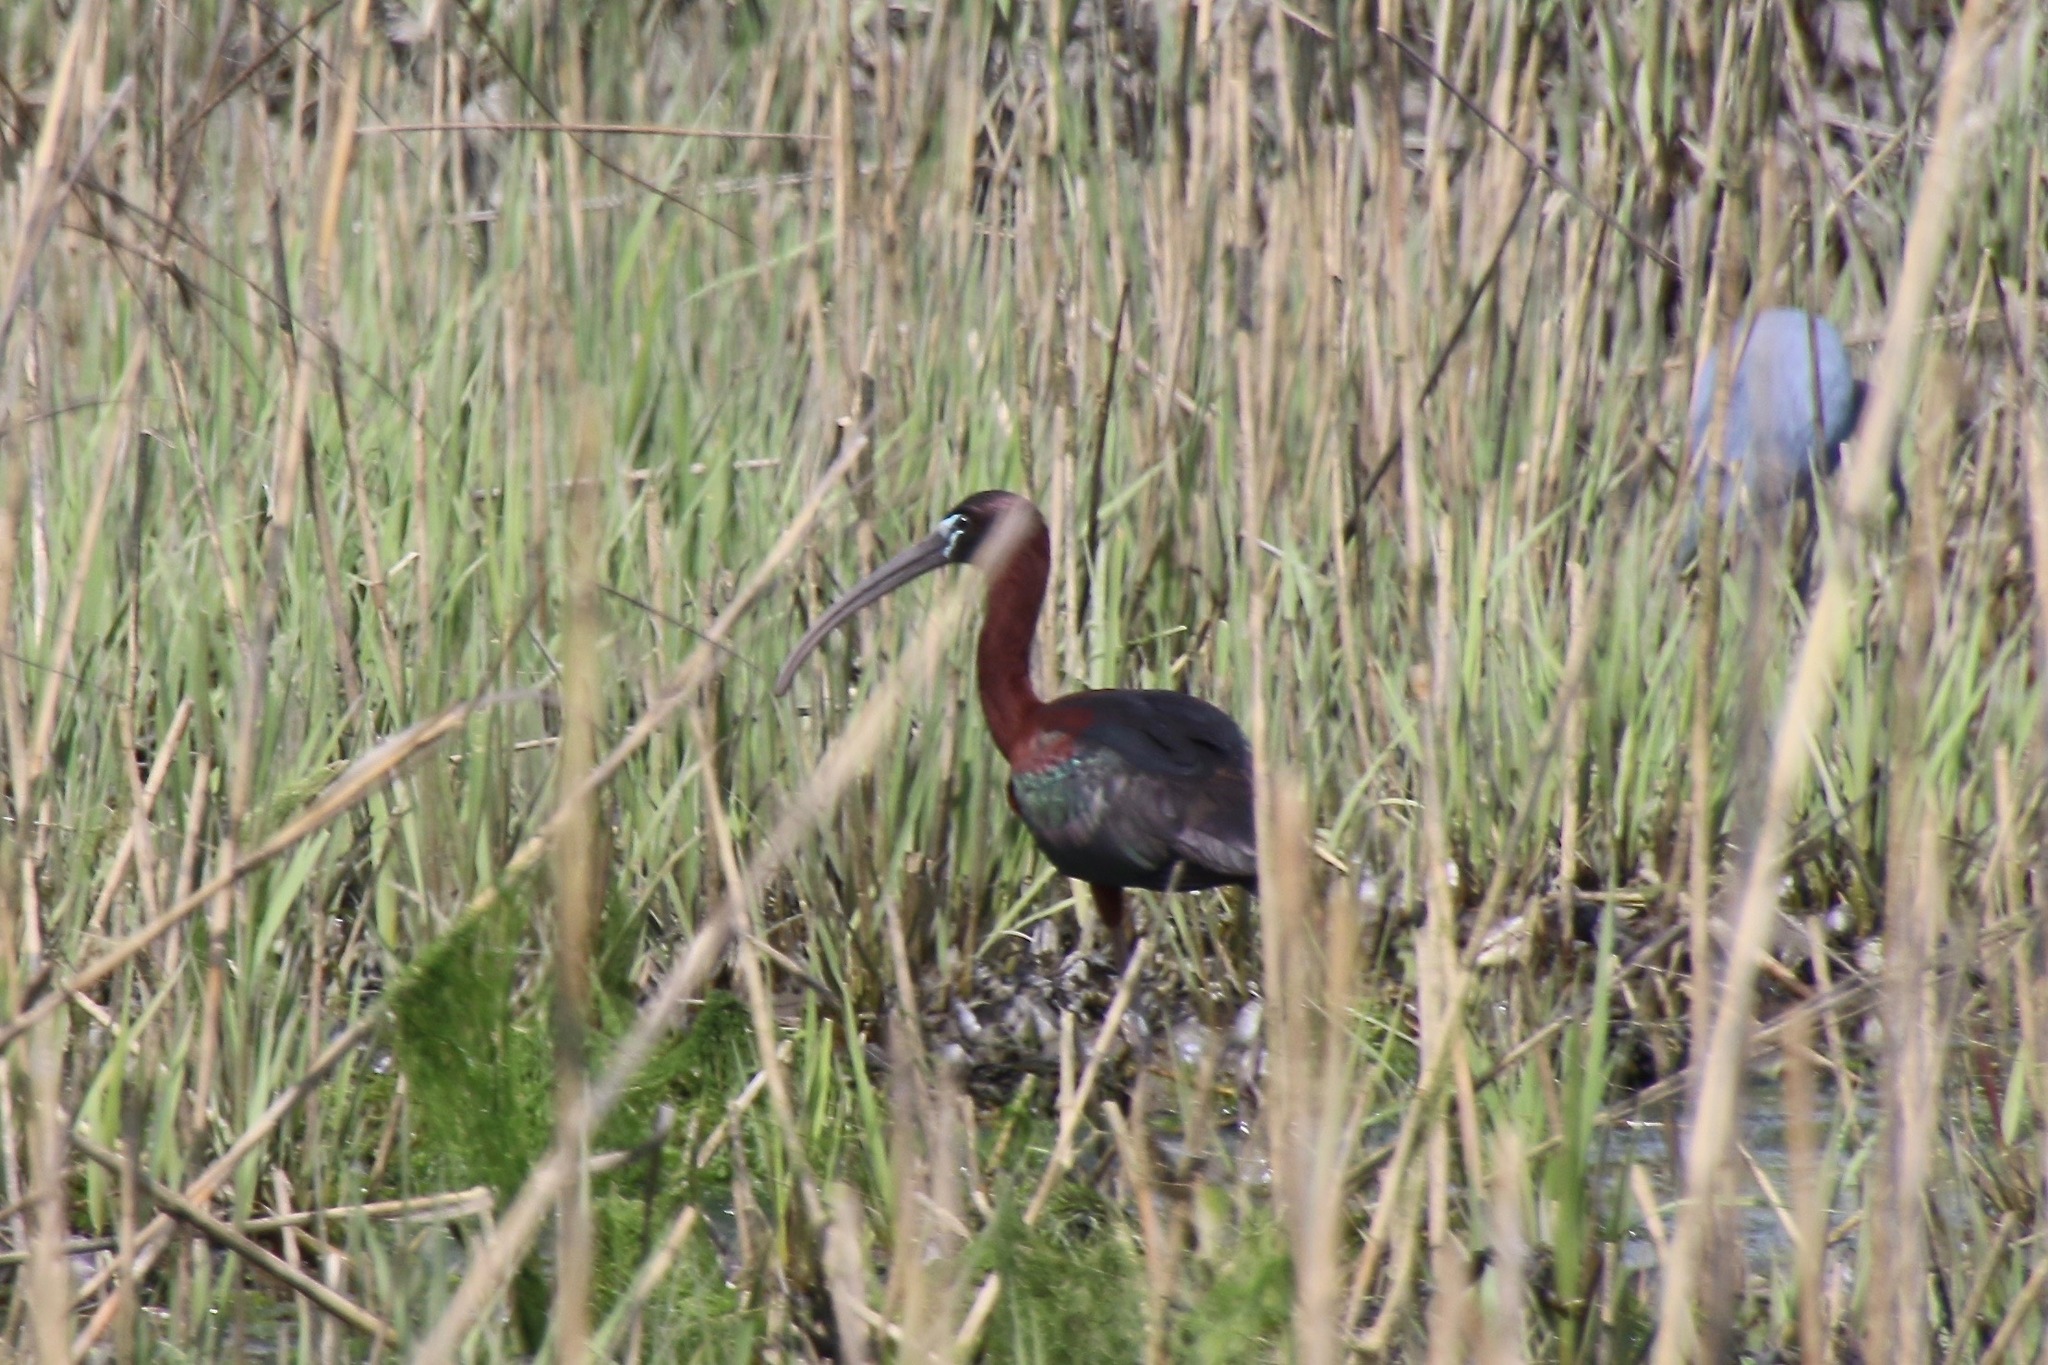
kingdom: Animalia
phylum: Chordata
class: Aves
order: Pelecaniformes
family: Threskiornithidae
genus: Plegadis
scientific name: Plegadis falcinellus
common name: Glossy ibis
